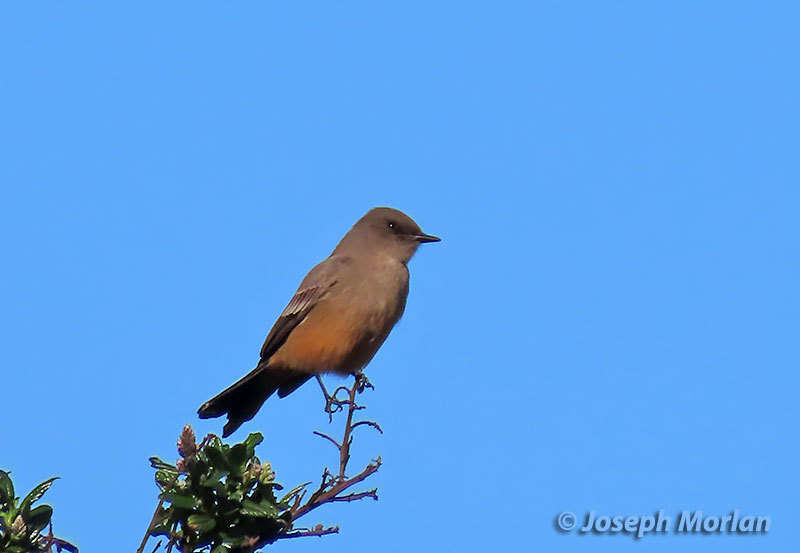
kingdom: Animalia
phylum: Chordata
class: Aves
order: Passeriformes
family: Tyrannidae
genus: Sayornis
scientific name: Sayornis saya
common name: Say's phoebe
